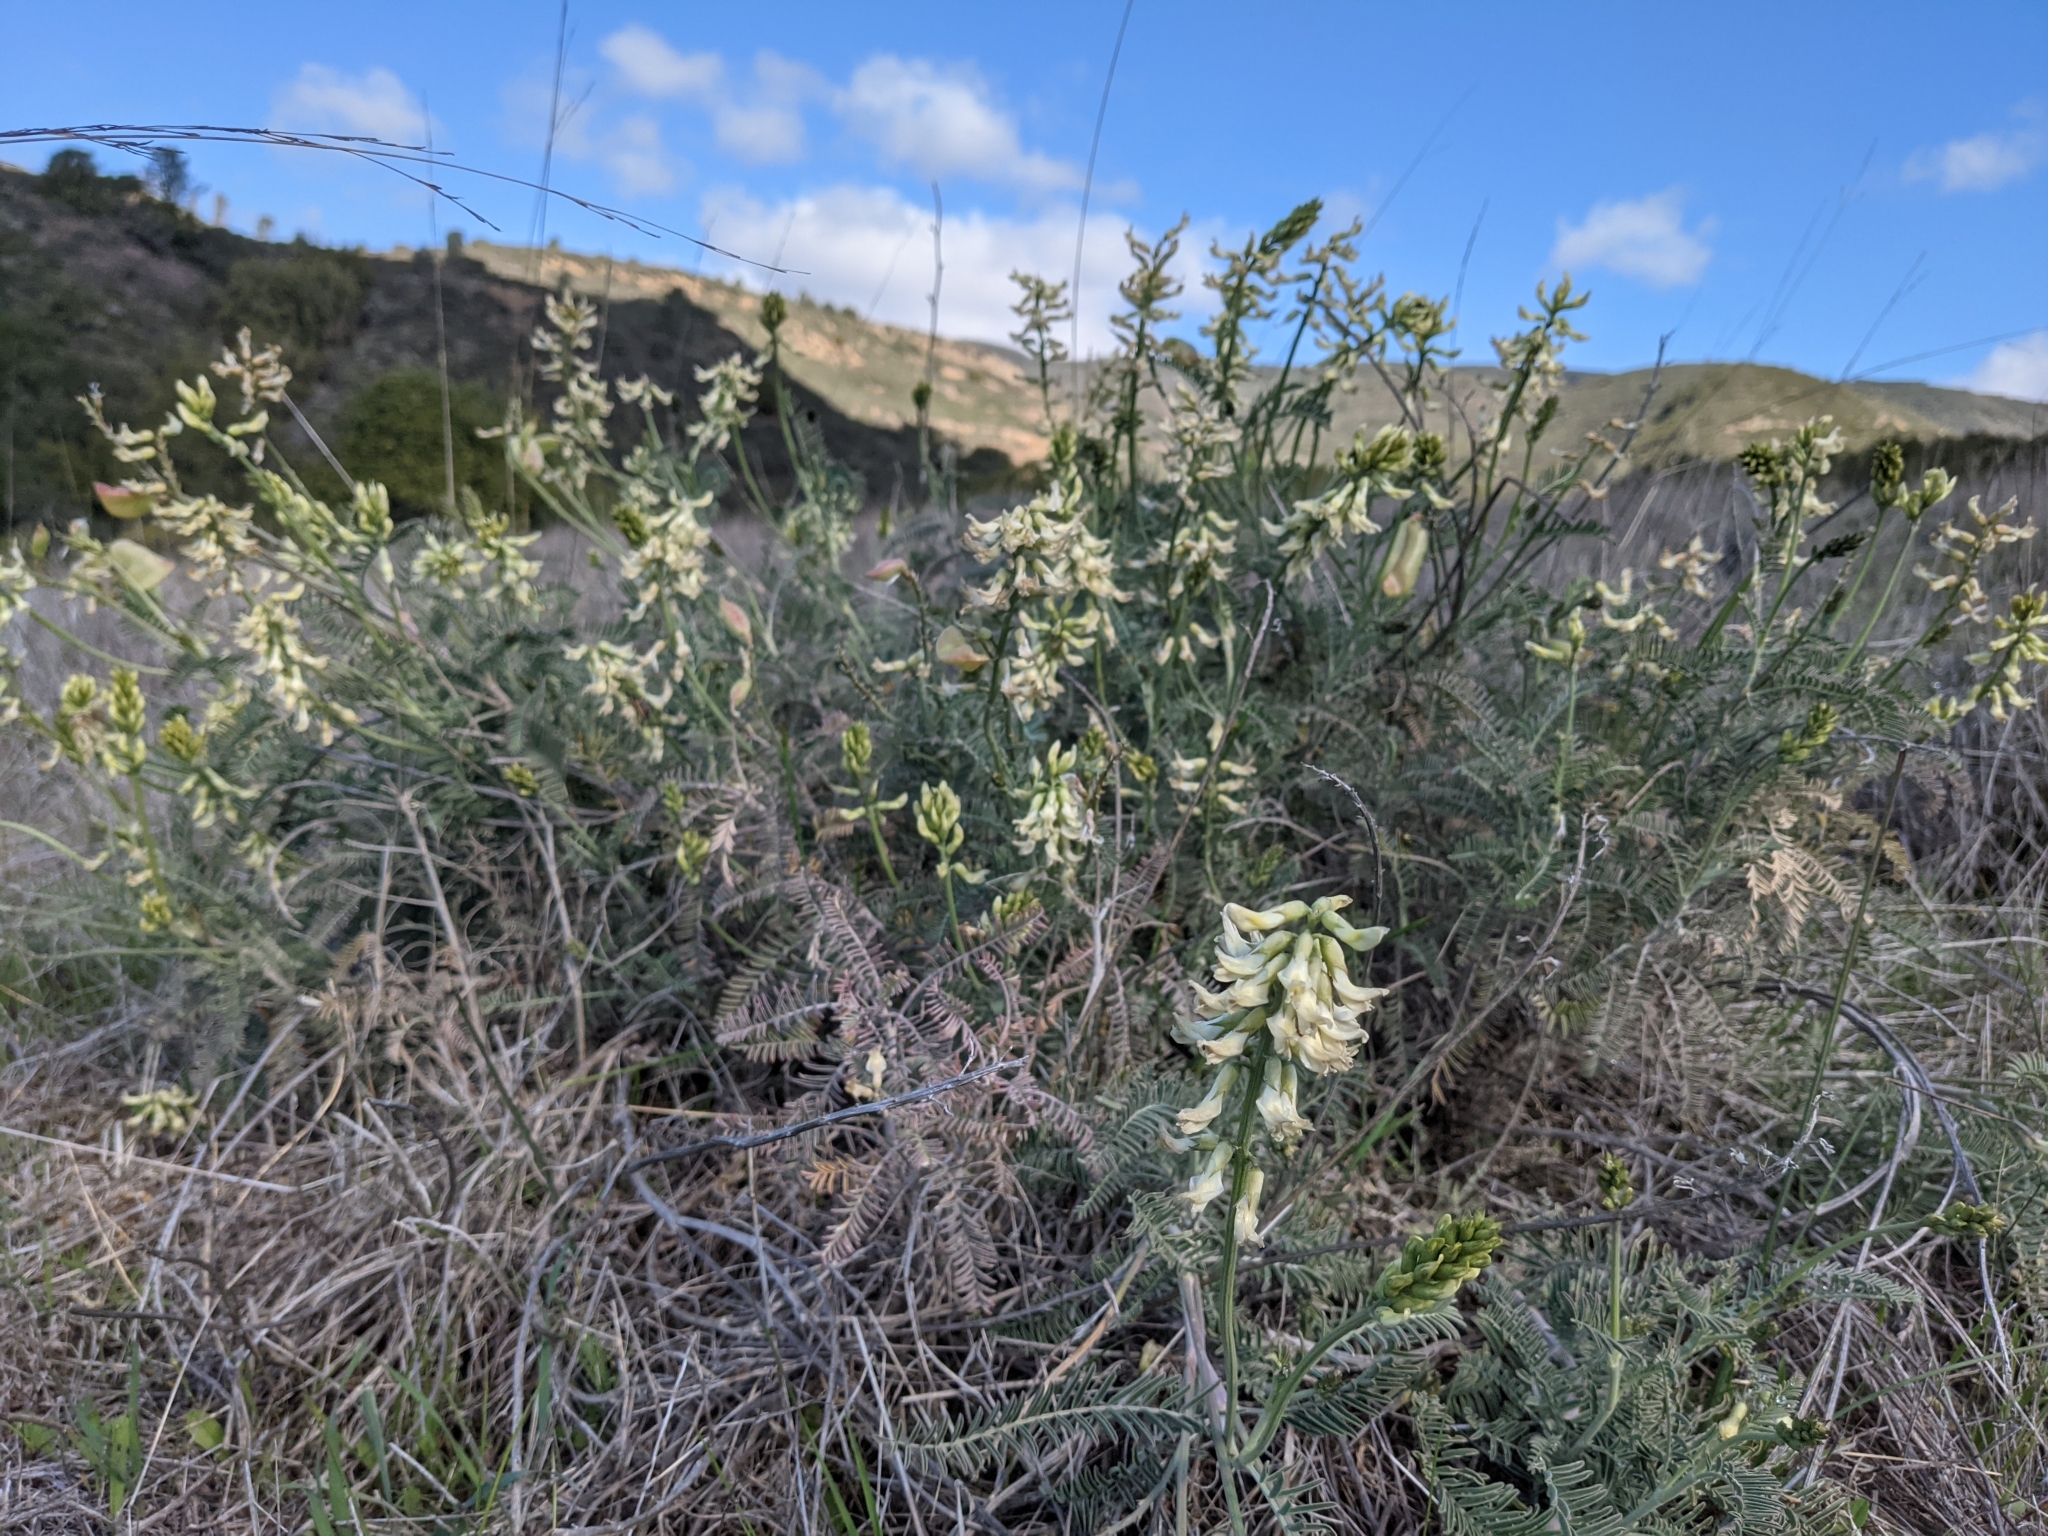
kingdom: Plantae
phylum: Tracheophyta
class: Magnoliopsida
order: Fabales
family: Fabaceae
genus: Astragalus
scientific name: Astragalus curtipes
